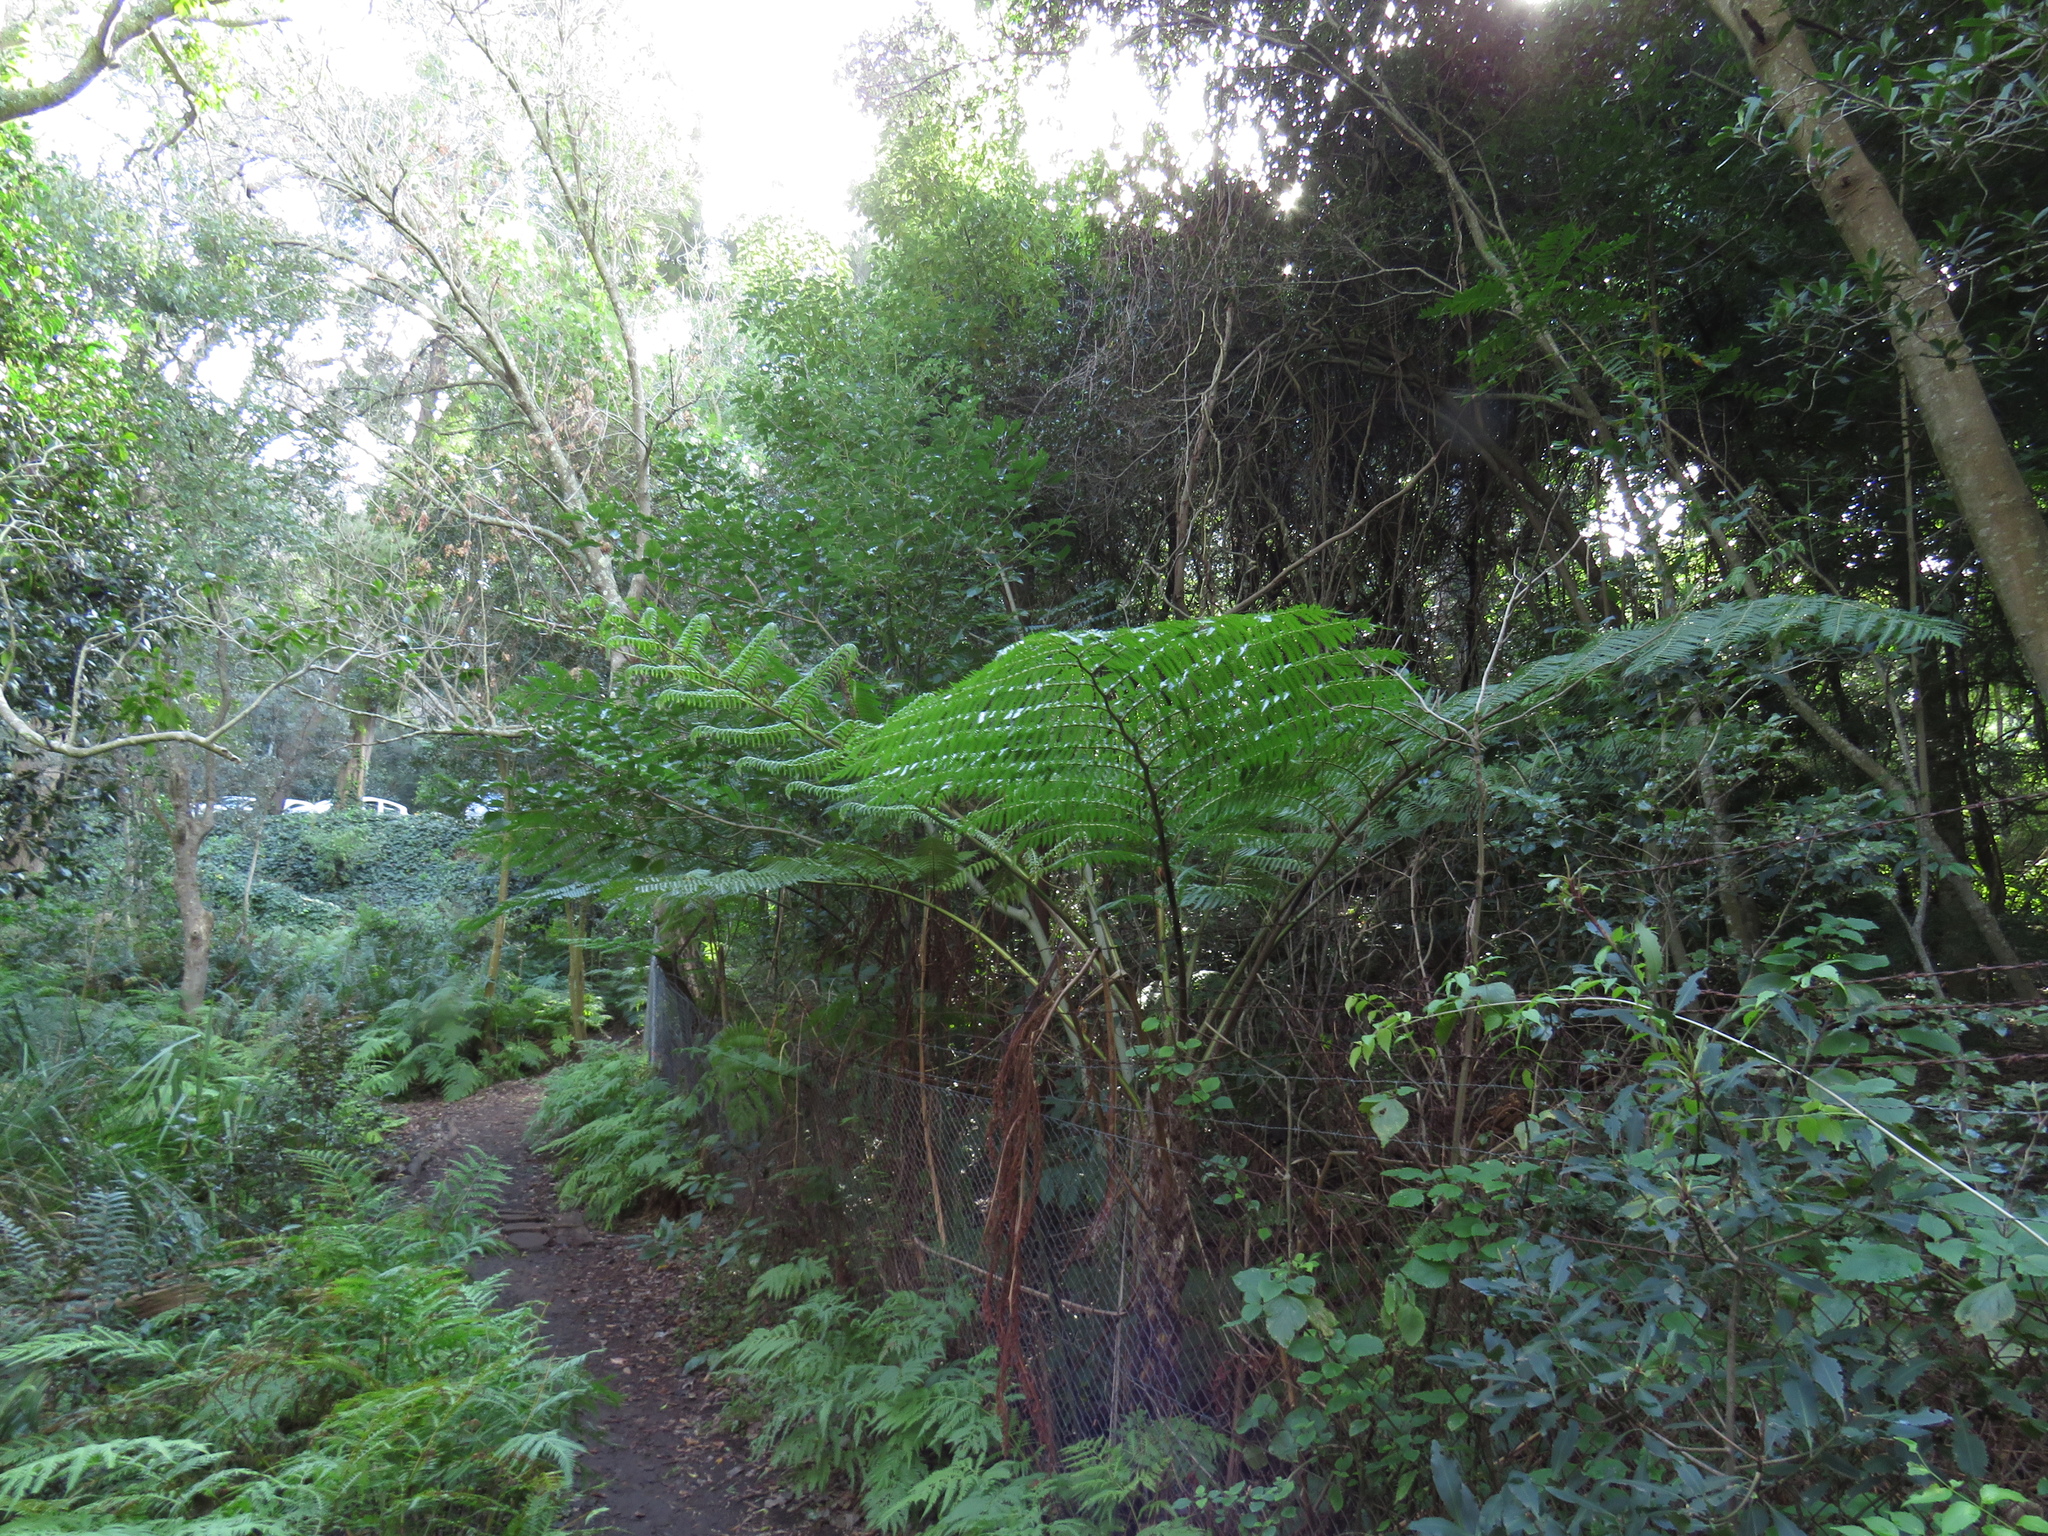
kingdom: Plantae
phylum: Tracheophyta
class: Polypodiopsida
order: Cyatheales
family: Cyatheaceae
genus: Sphaeropteris
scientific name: Sphaeropteris cooperi
